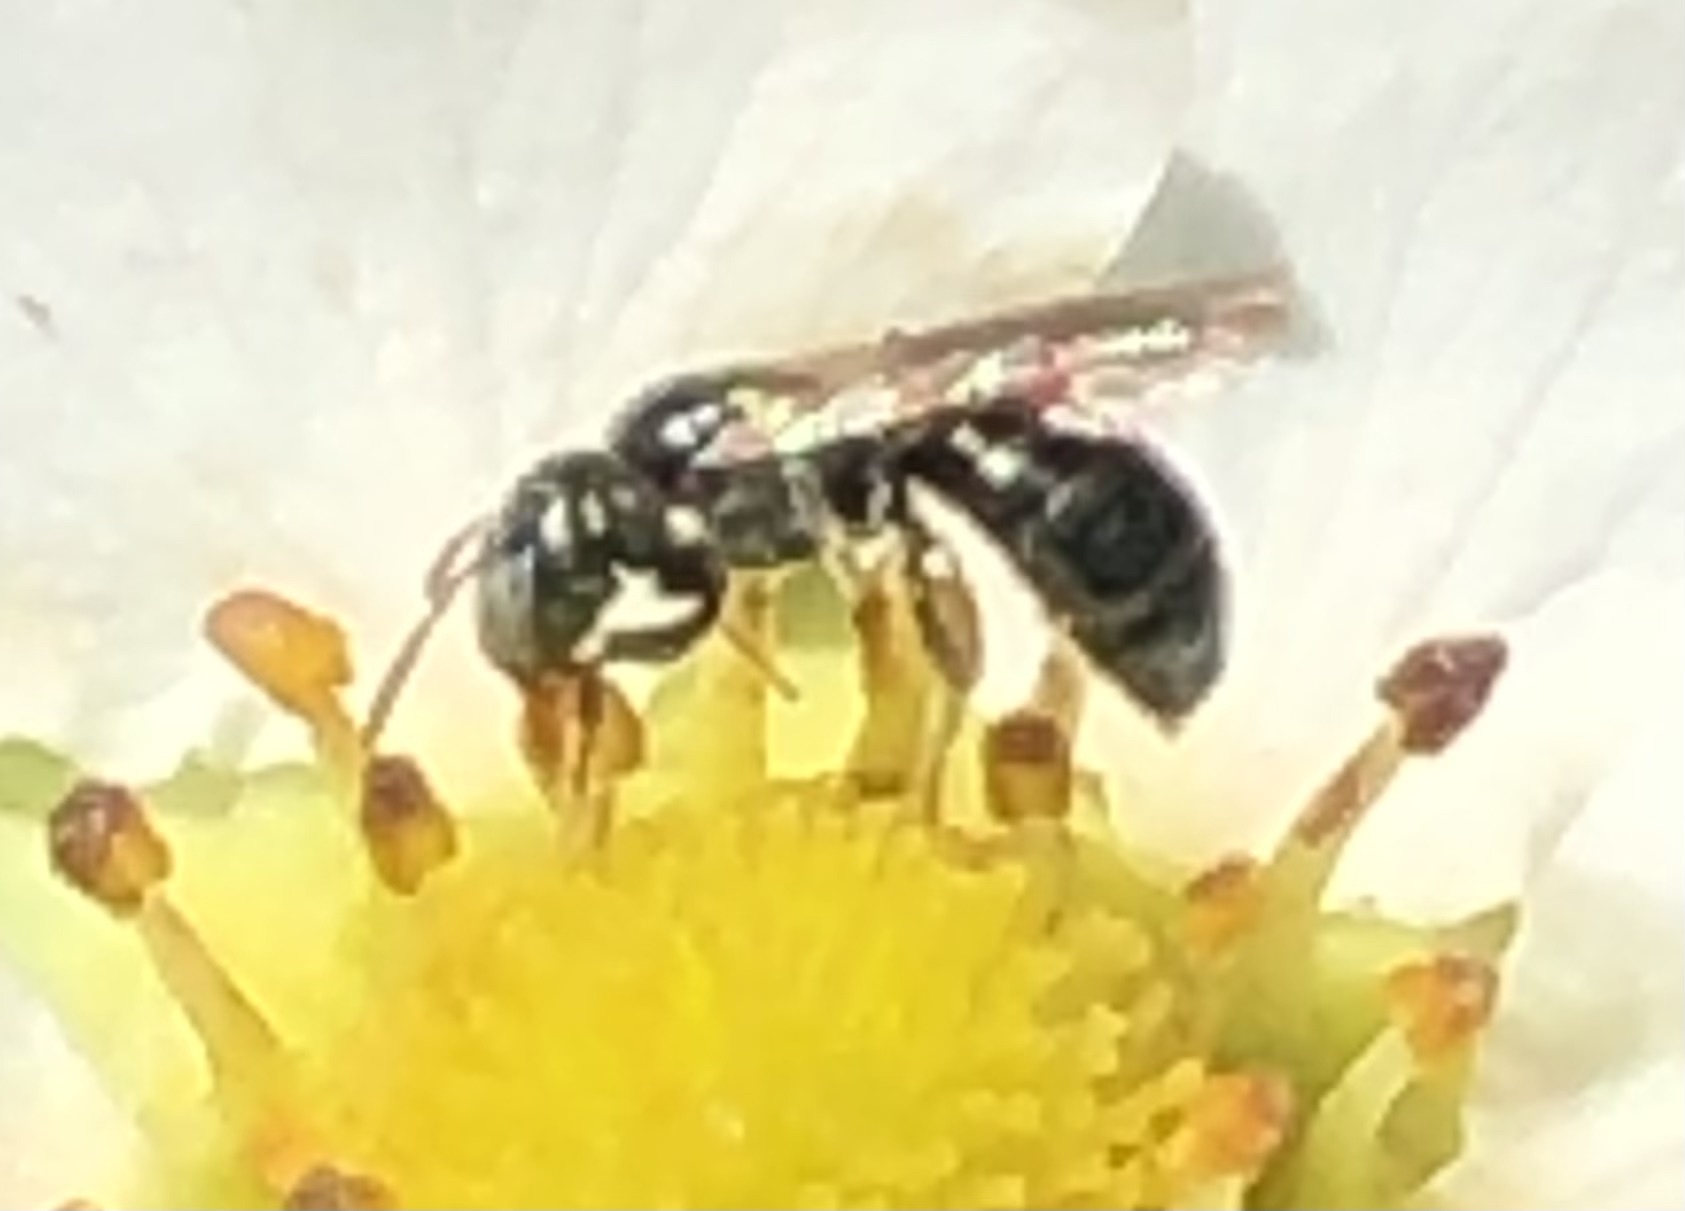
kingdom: Animalia
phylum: Arthropoda
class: Insecta
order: Hymenoptera
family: Apidae
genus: Zadontomerus
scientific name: Zadontomerus
